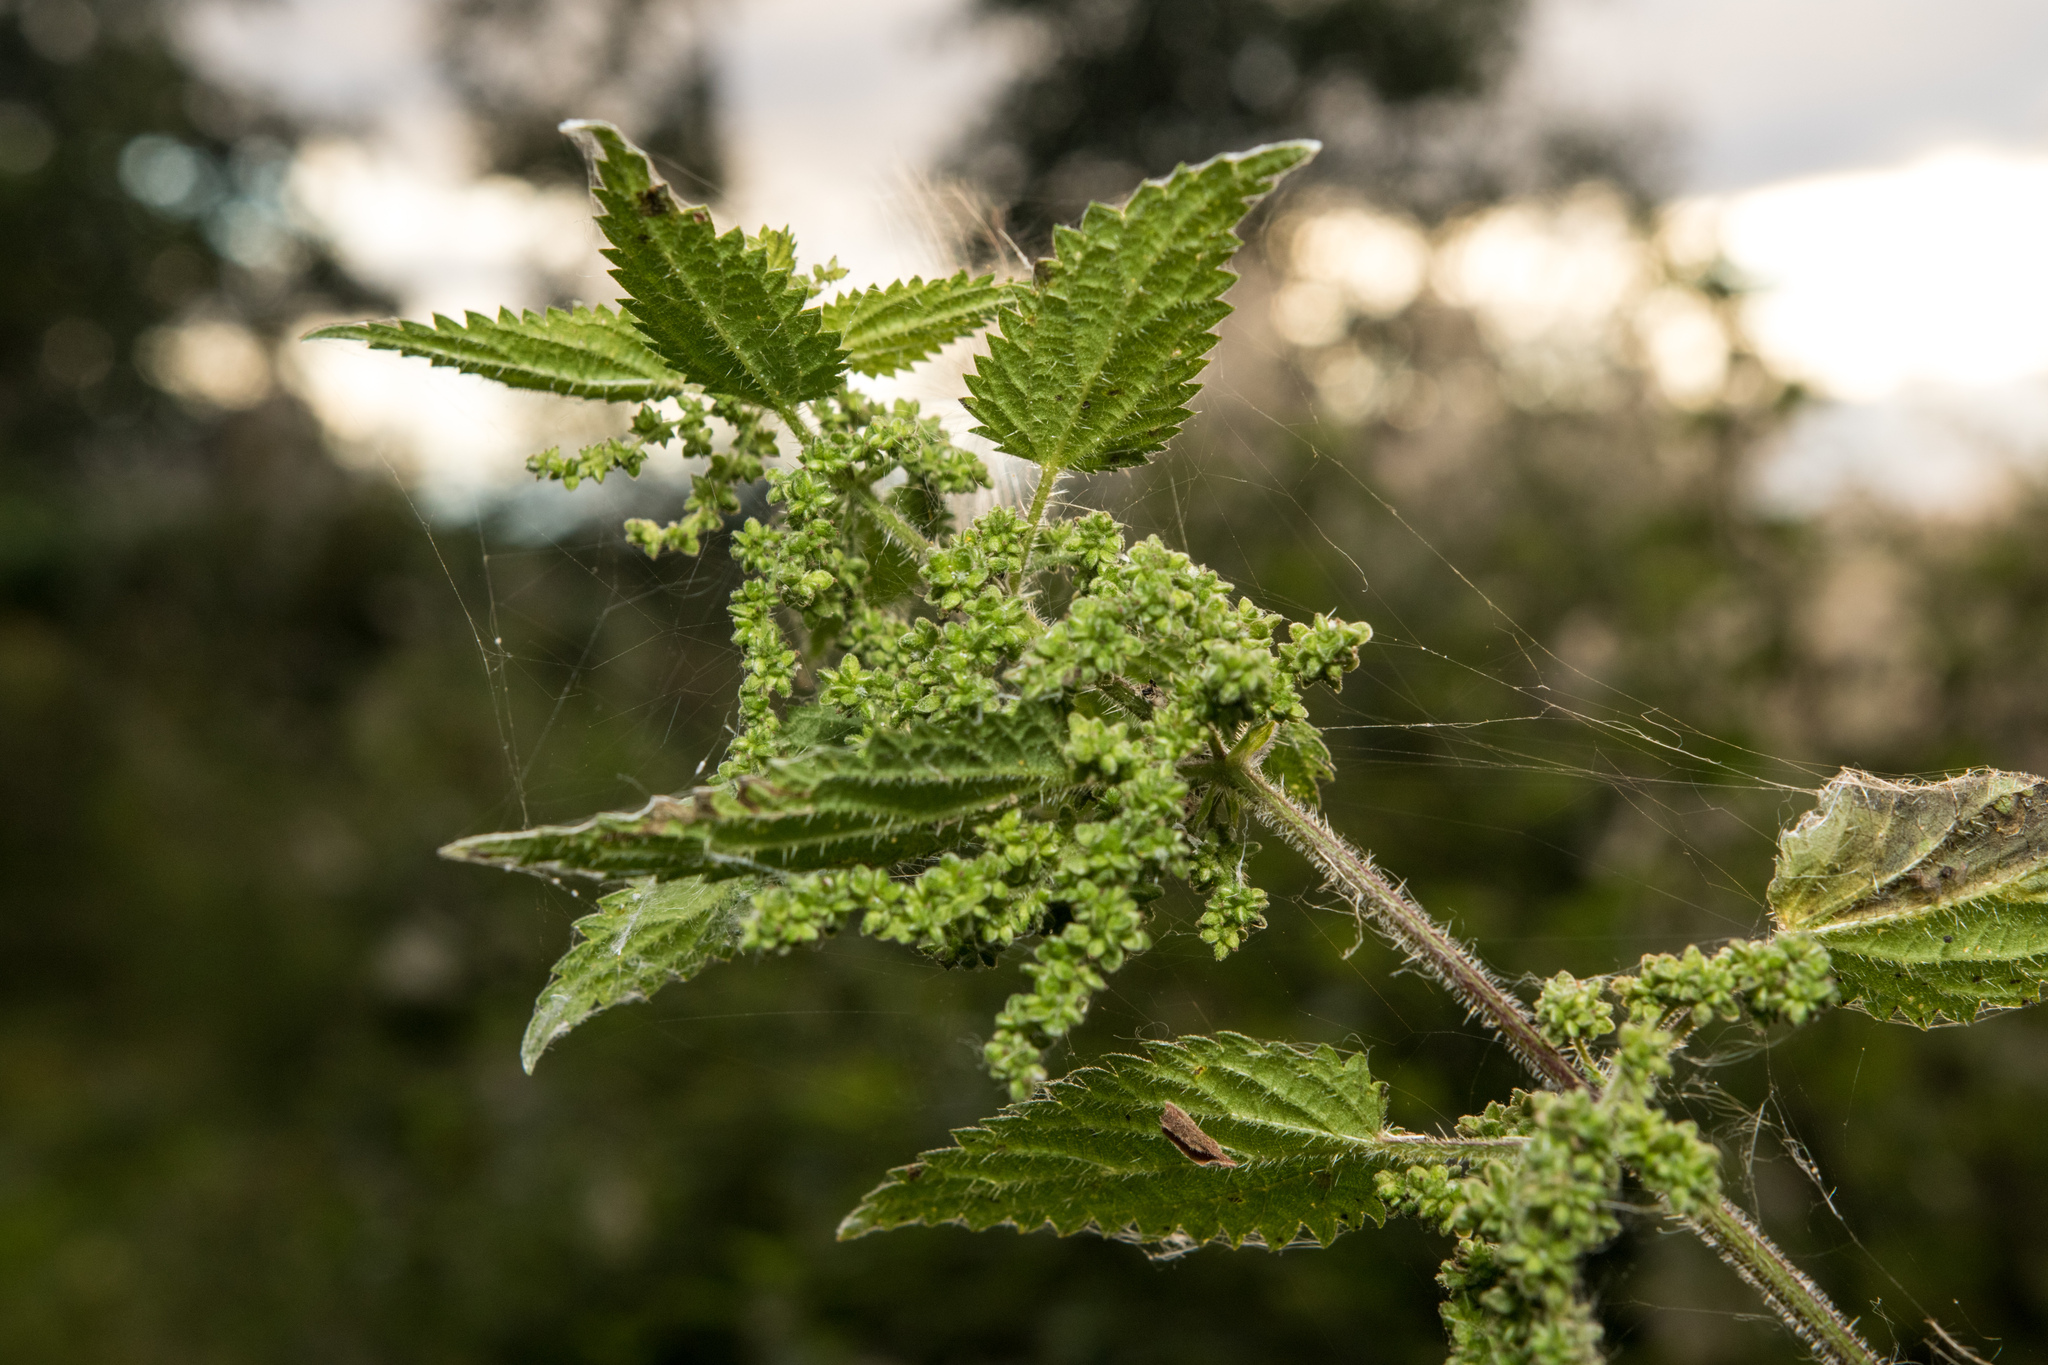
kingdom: Plantae
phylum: Tracheophyta
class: Magnoliopsida
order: Rosales
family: Urticaceae
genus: Urtica
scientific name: Urtica dioica
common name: Common nettle
